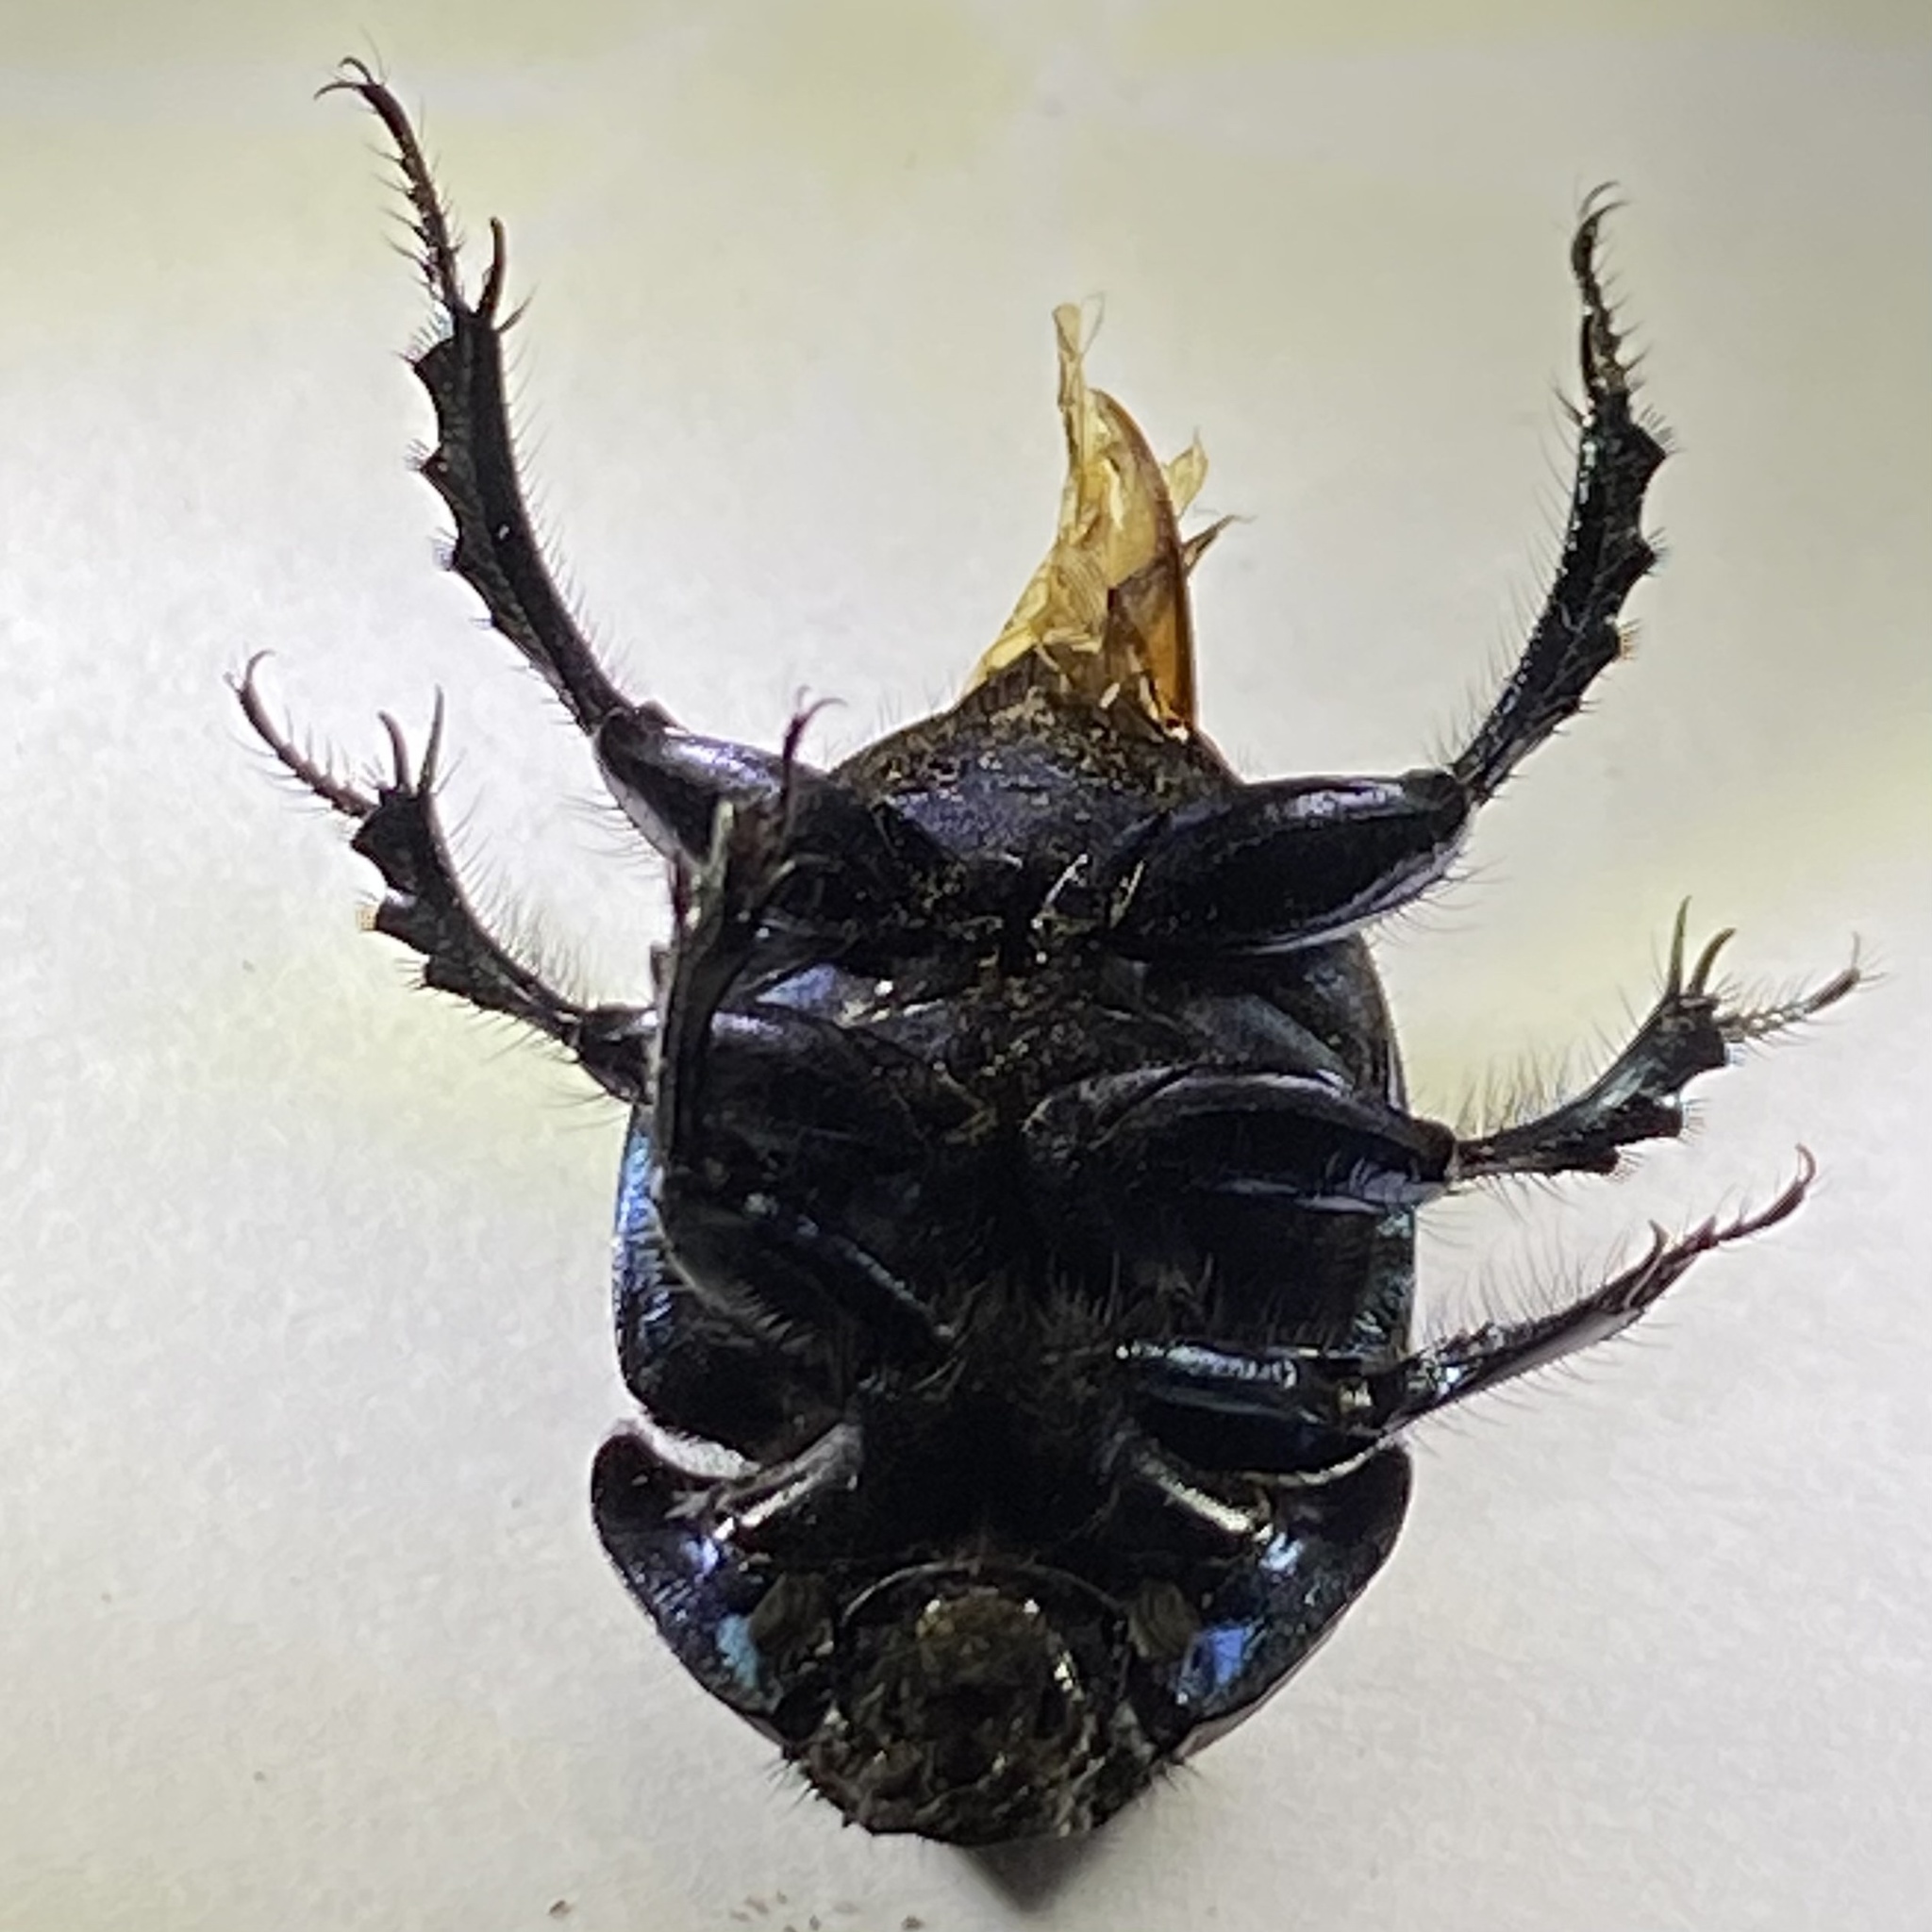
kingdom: Animalia
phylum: Arthropoda
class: Insecta
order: Coleoptera
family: Geotrupidae
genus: Geohowdenius
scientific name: Geohowdenius opacus
